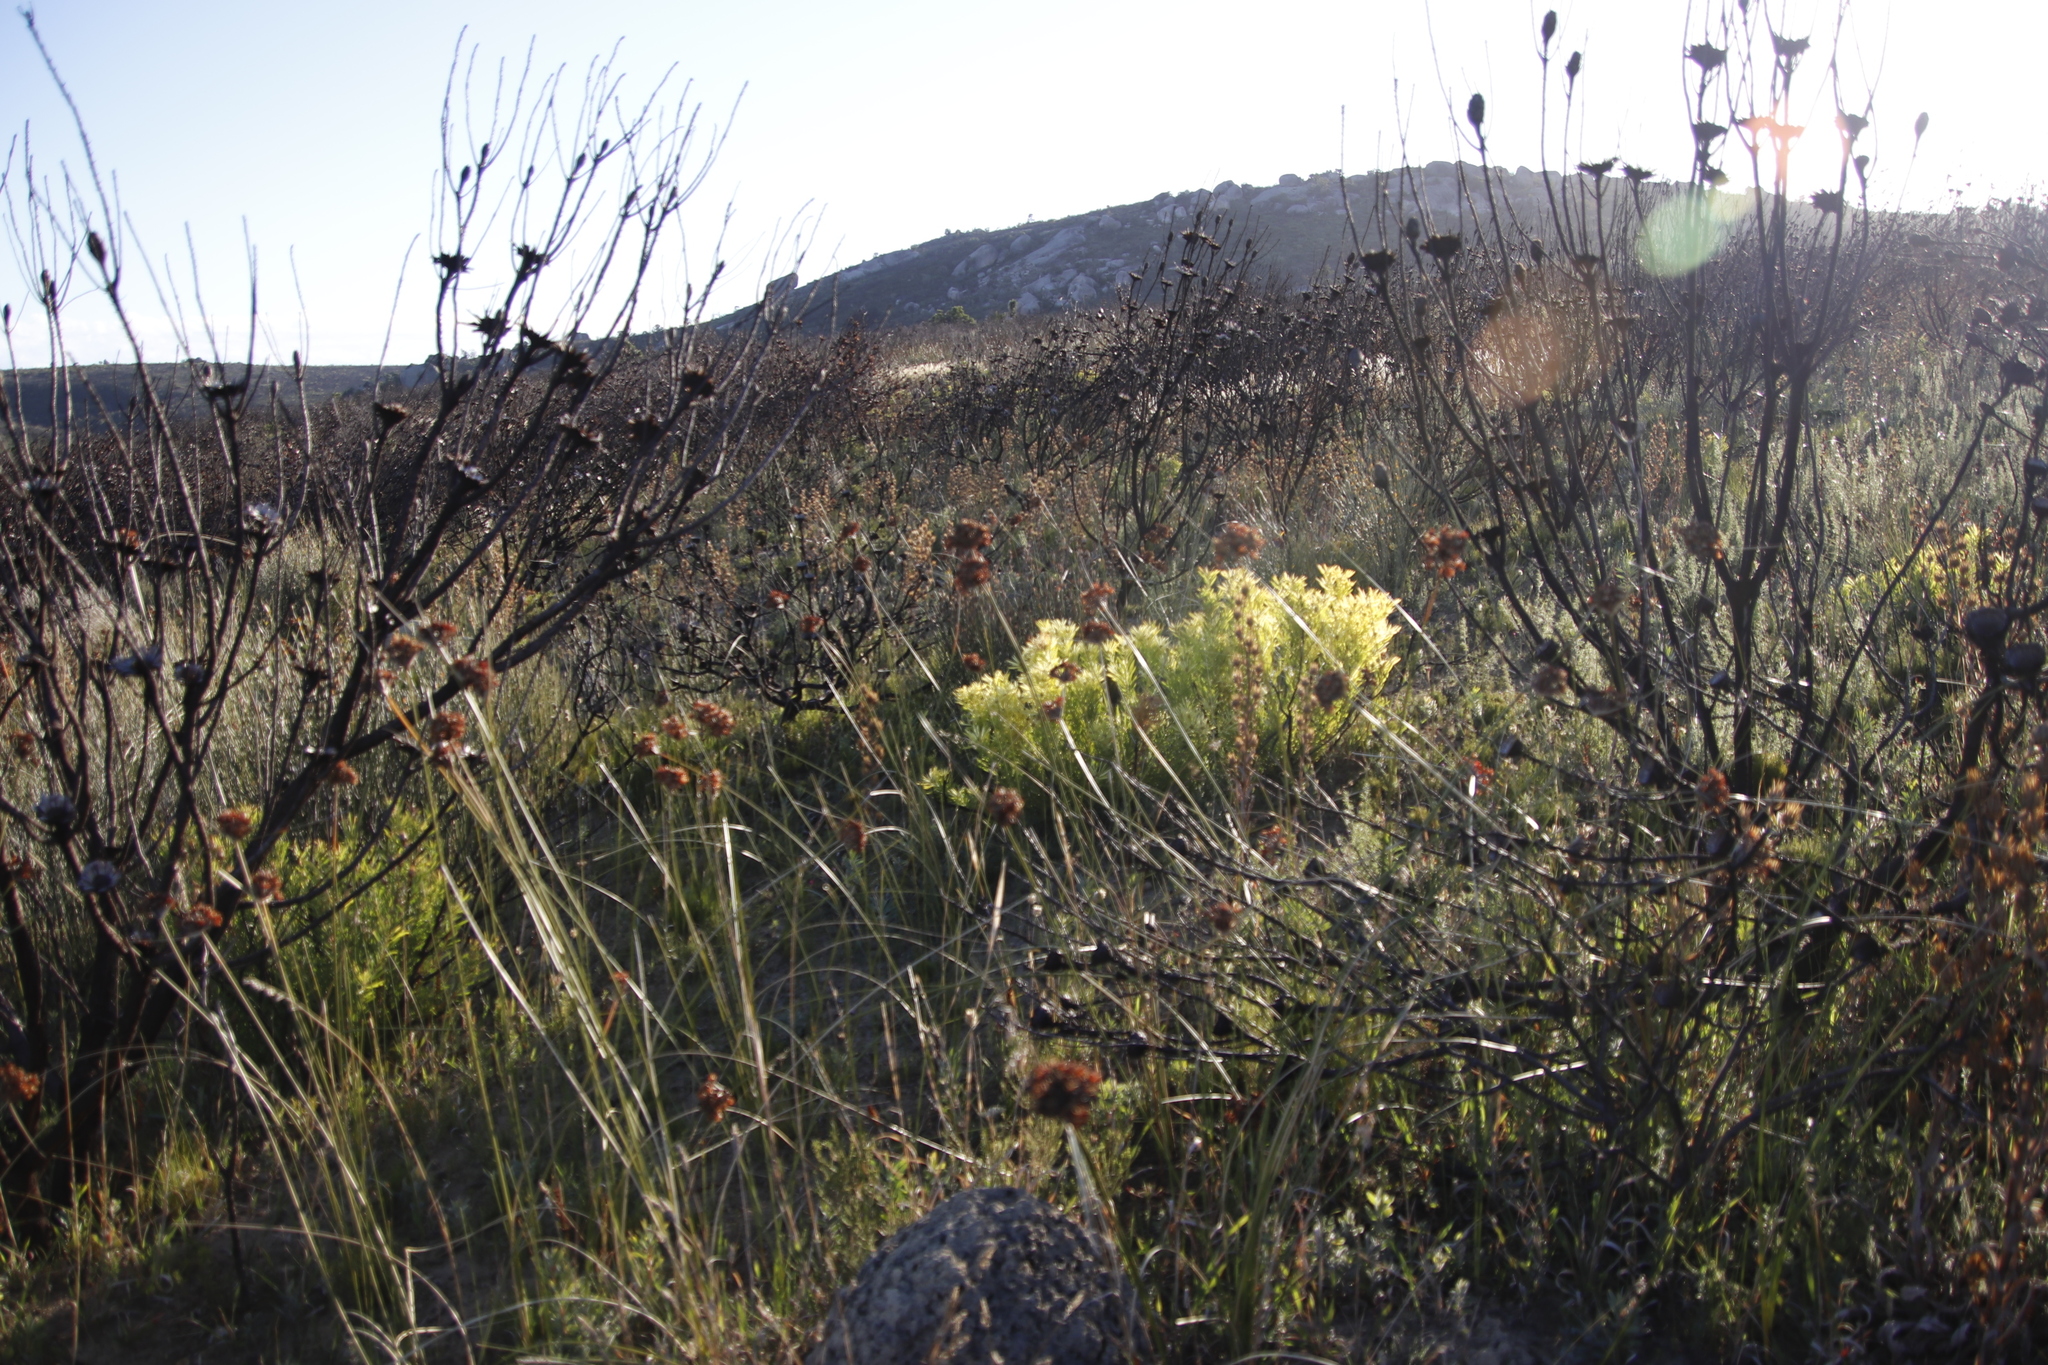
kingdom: Plantae
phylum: Tracheophyta
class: Magnoliopsida
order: Proteales
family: Proteaceae
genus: Leucadendron
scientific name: Leucadendron salignum
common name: Common sunshine conebush
